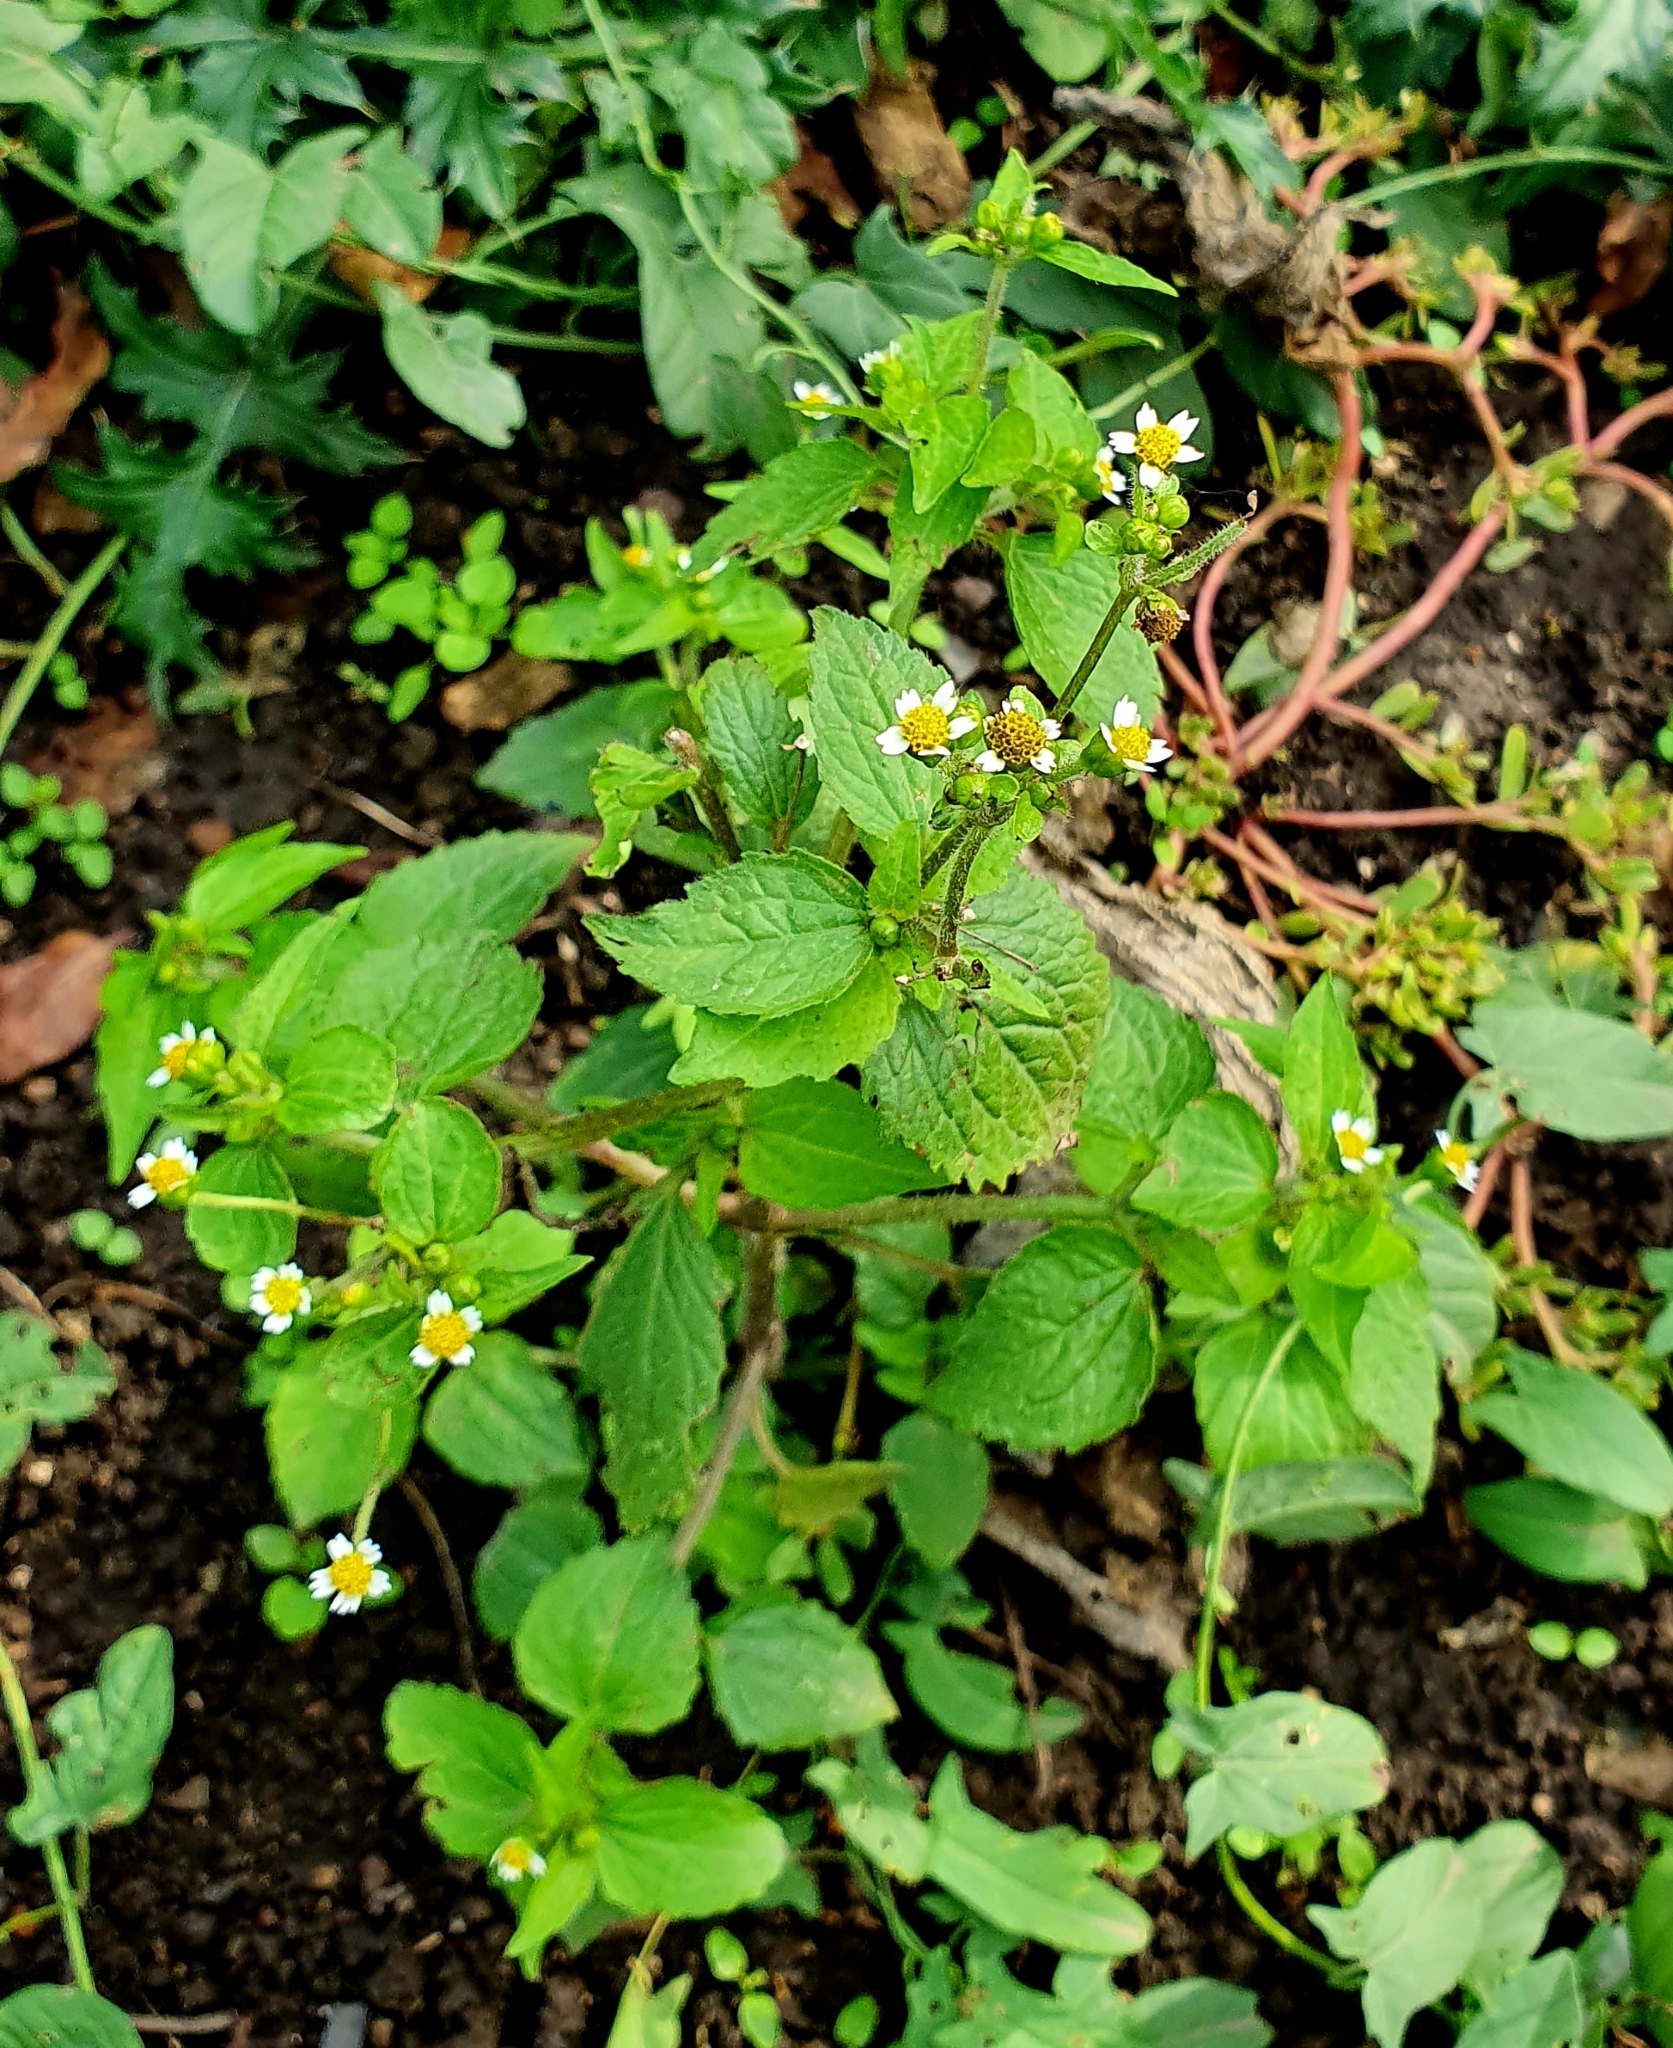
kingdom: Plantae
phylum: Tracheophyta
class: Magnoliopsida
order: Asterales
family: Asteraceae
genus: Galinsoga
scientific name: Galinsoga quadriradiata
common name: Shaggy soldier
